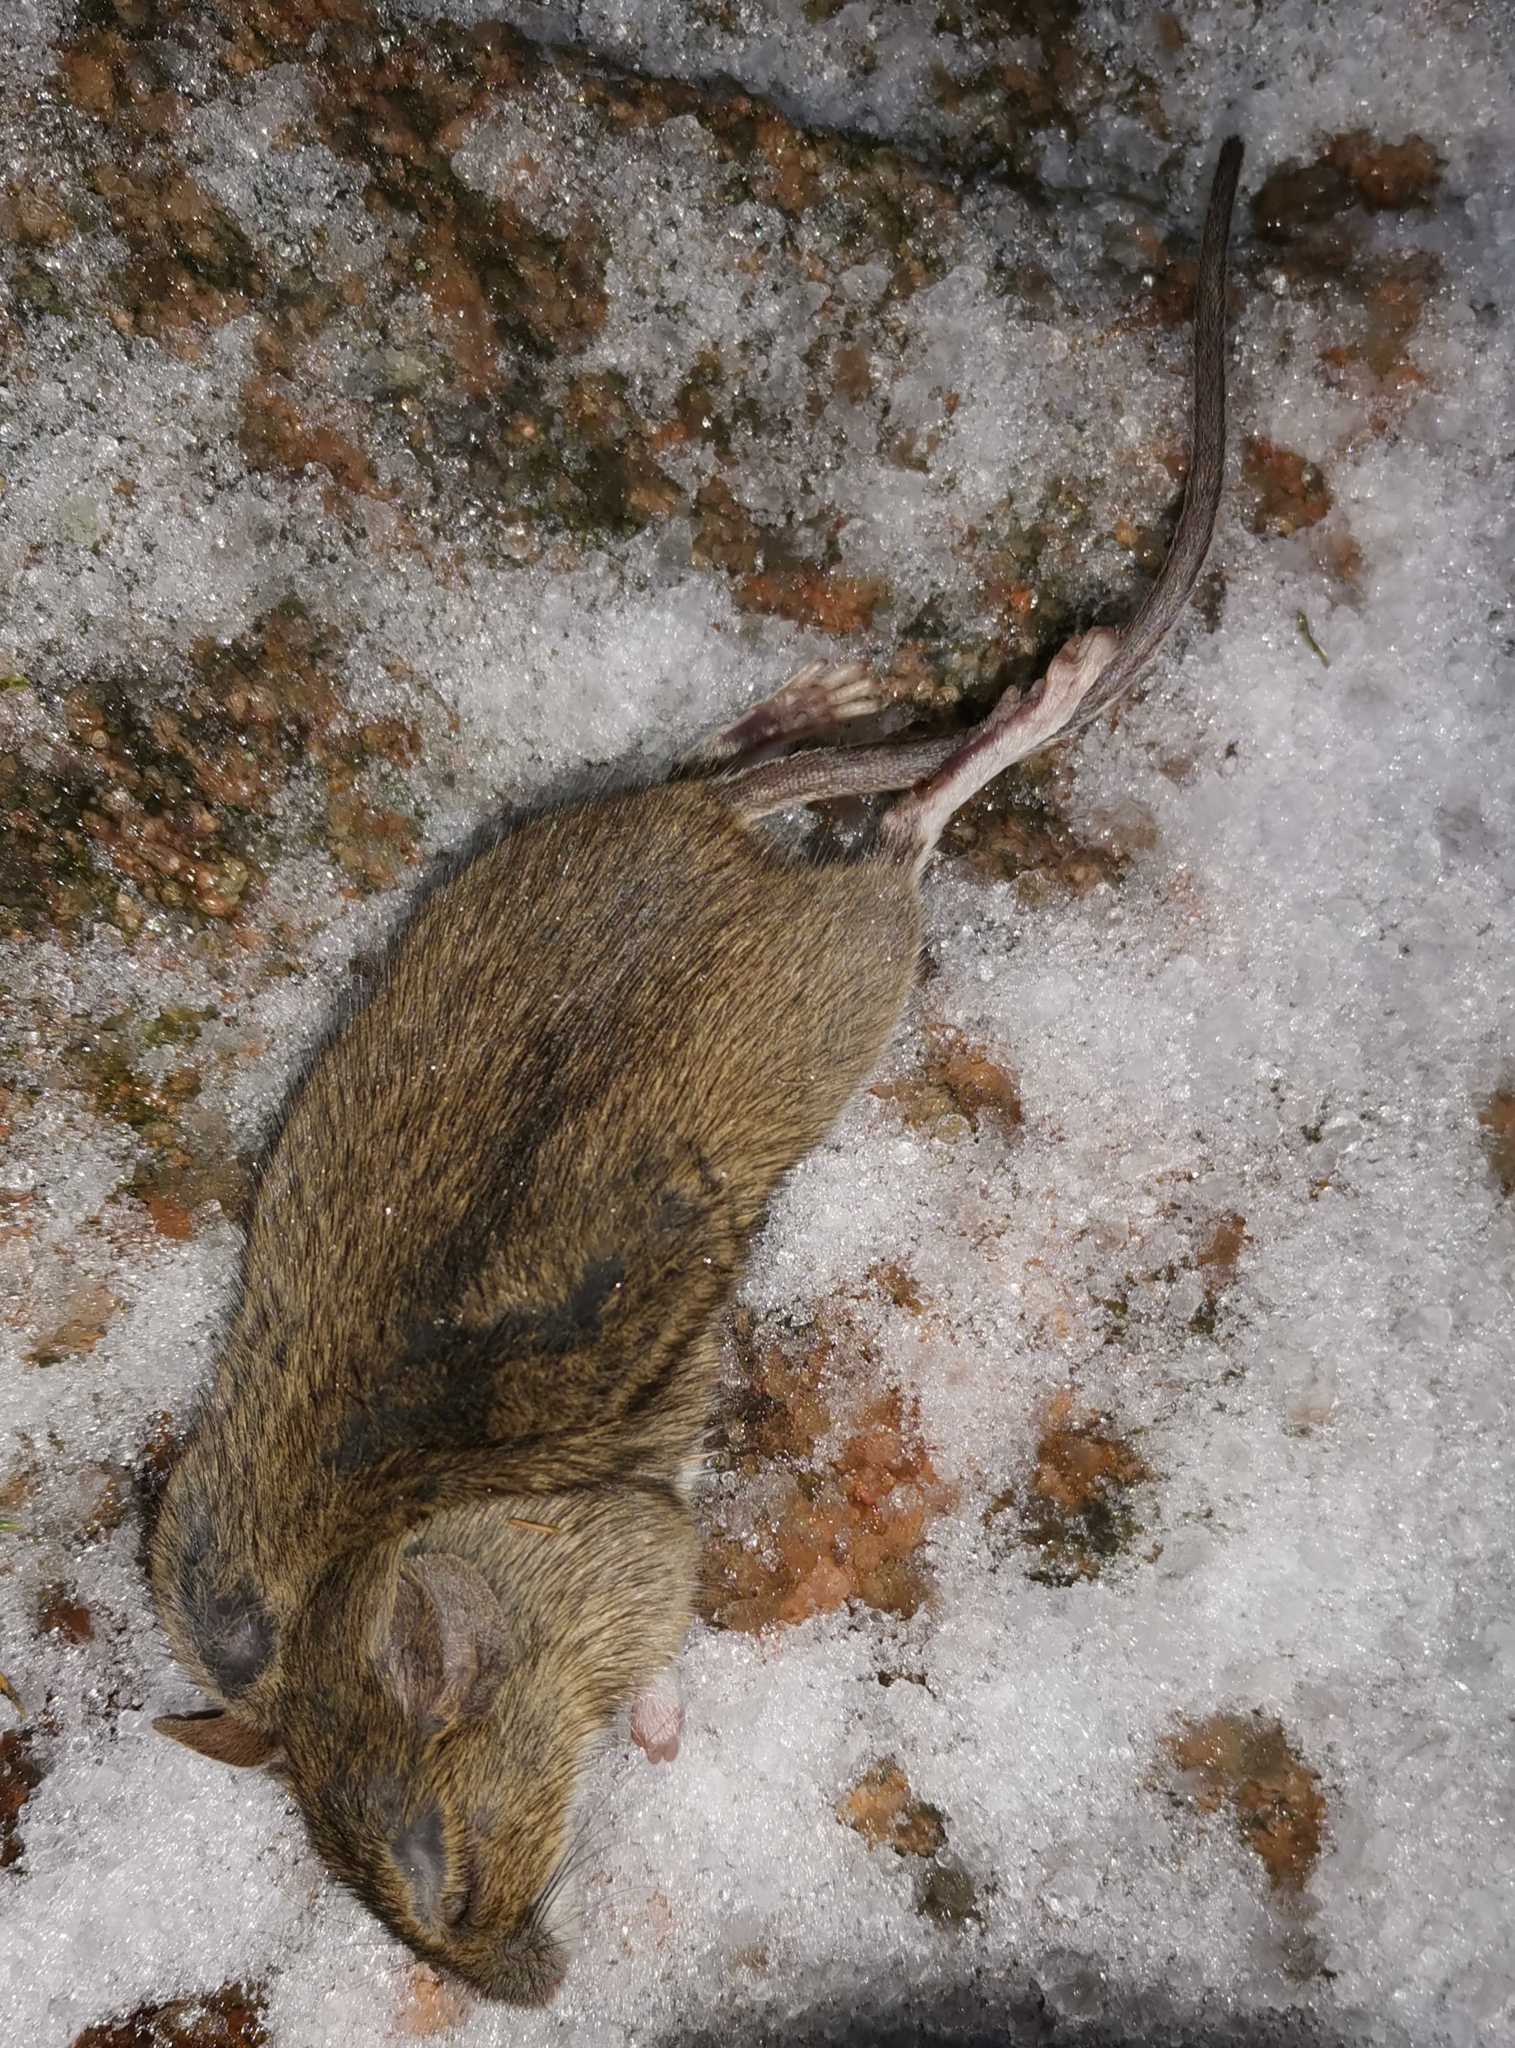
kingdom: Animalia
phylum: Chordata
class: Mammalia
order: Rodentia
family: Muridae
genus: Apodemus
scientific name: Apodemus flavicollis
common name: Yellow-necked field mouse
